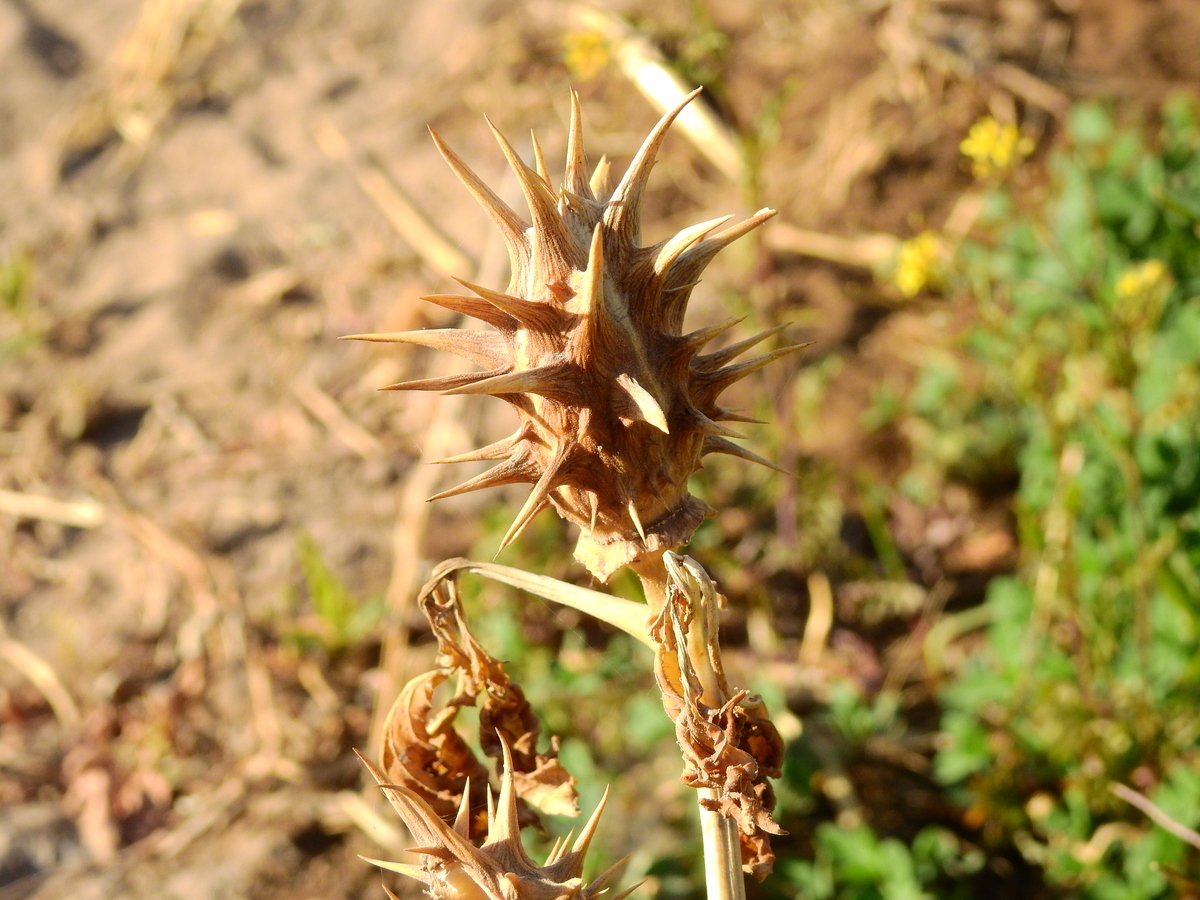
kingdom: Plantae
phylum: Tracheophyta
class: Magnoliopsida
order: Solanales
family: Solanaceae
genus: Datura
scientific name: Datura ferox
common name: Angel's-trumpets
